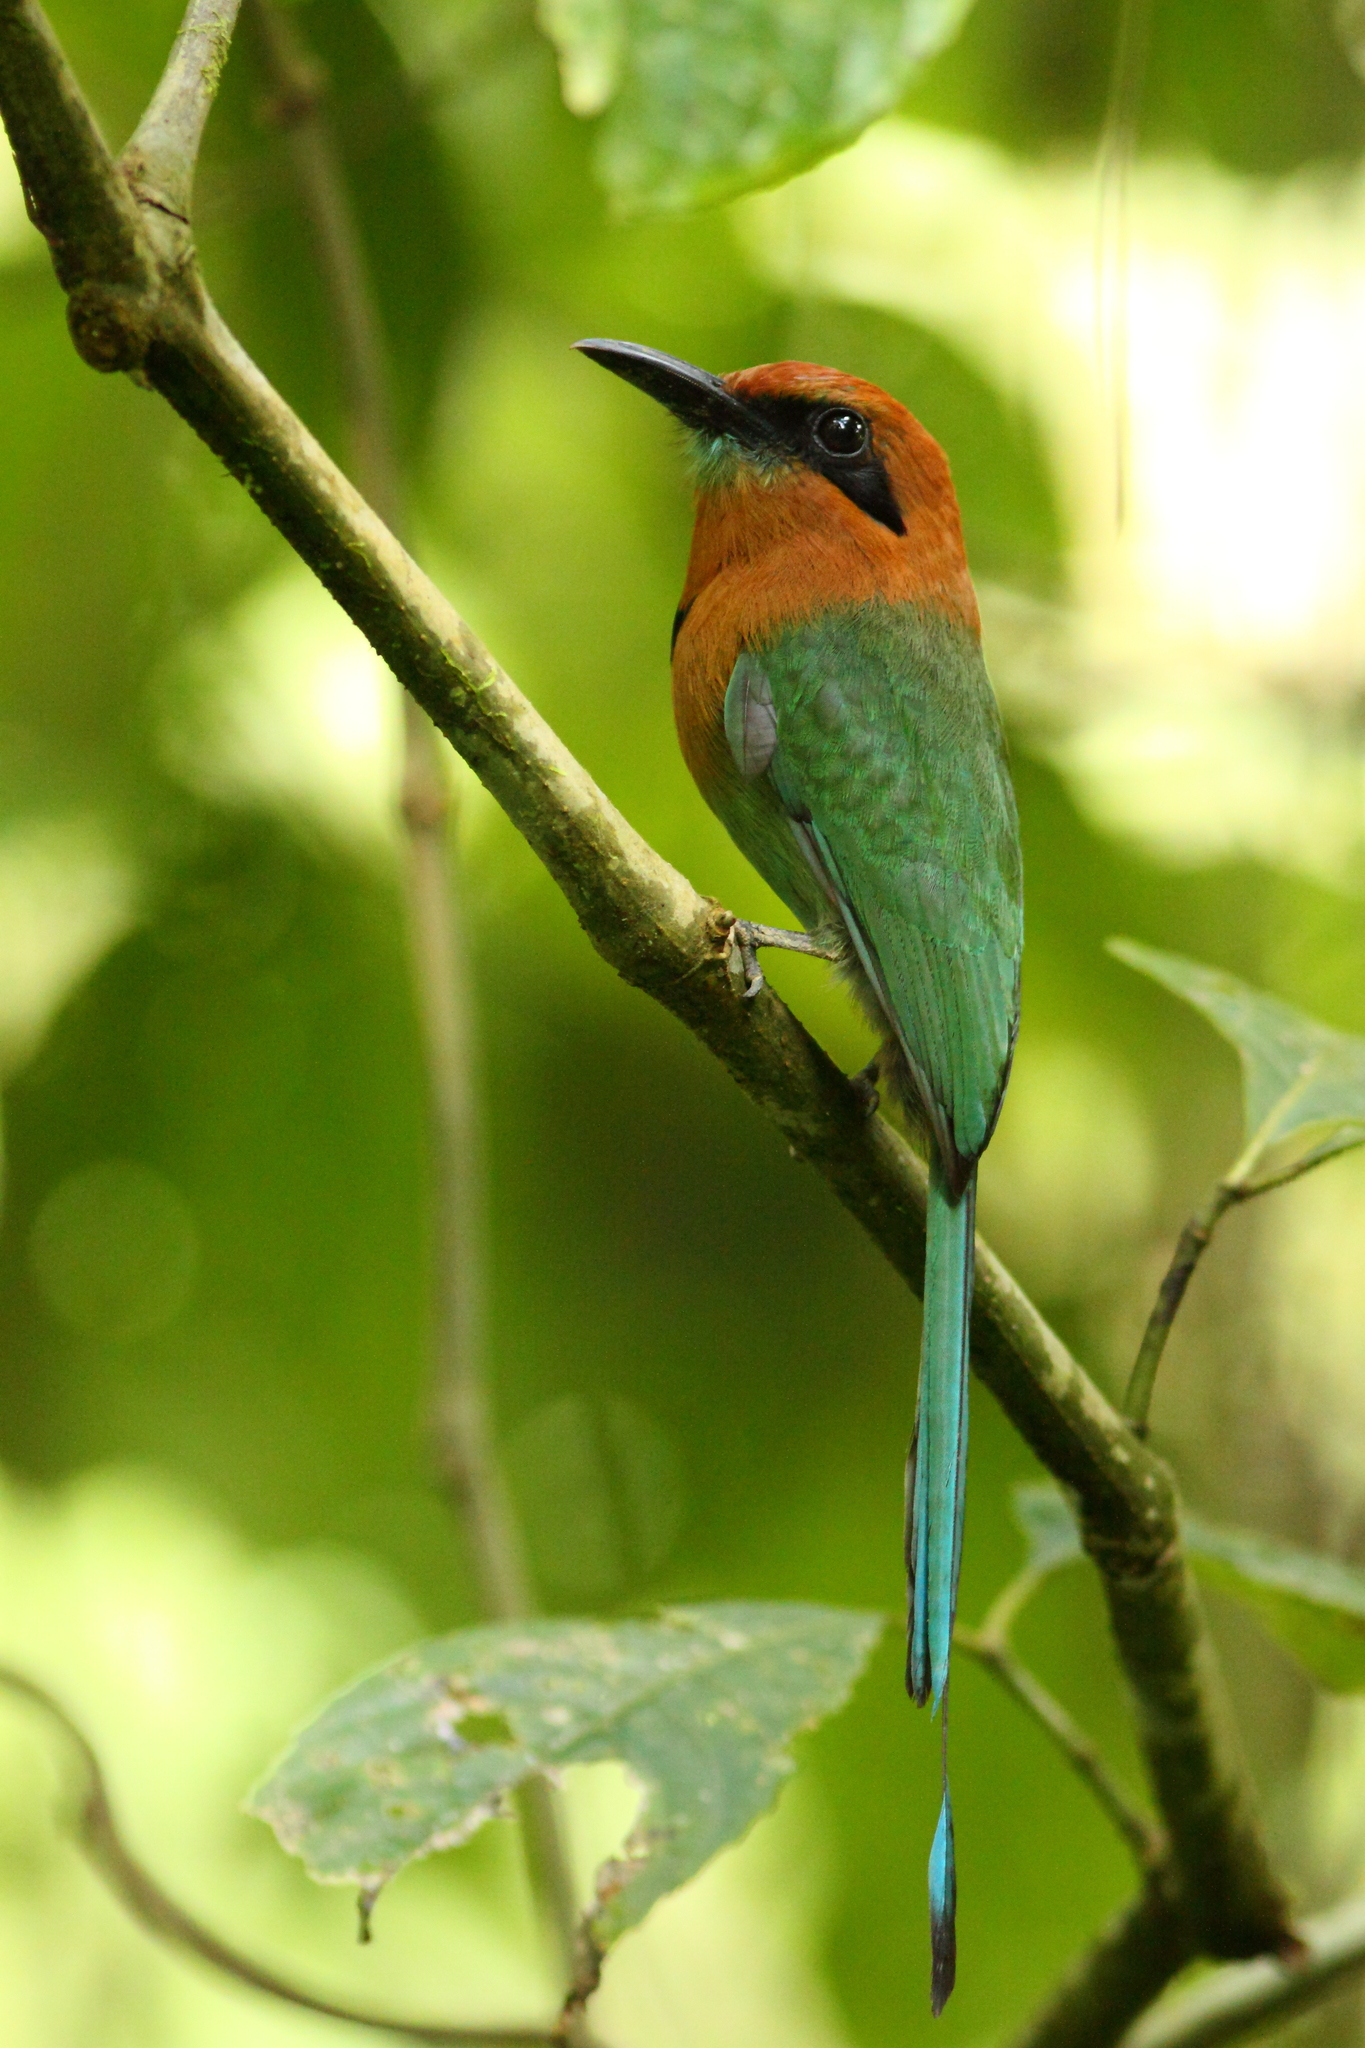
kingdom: Animalia
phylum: Chordata
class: Aves
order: Coraciiformes
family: Momotidae
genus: Electron
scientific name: Electron platyrhynchum
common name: Broad-billed motmot
